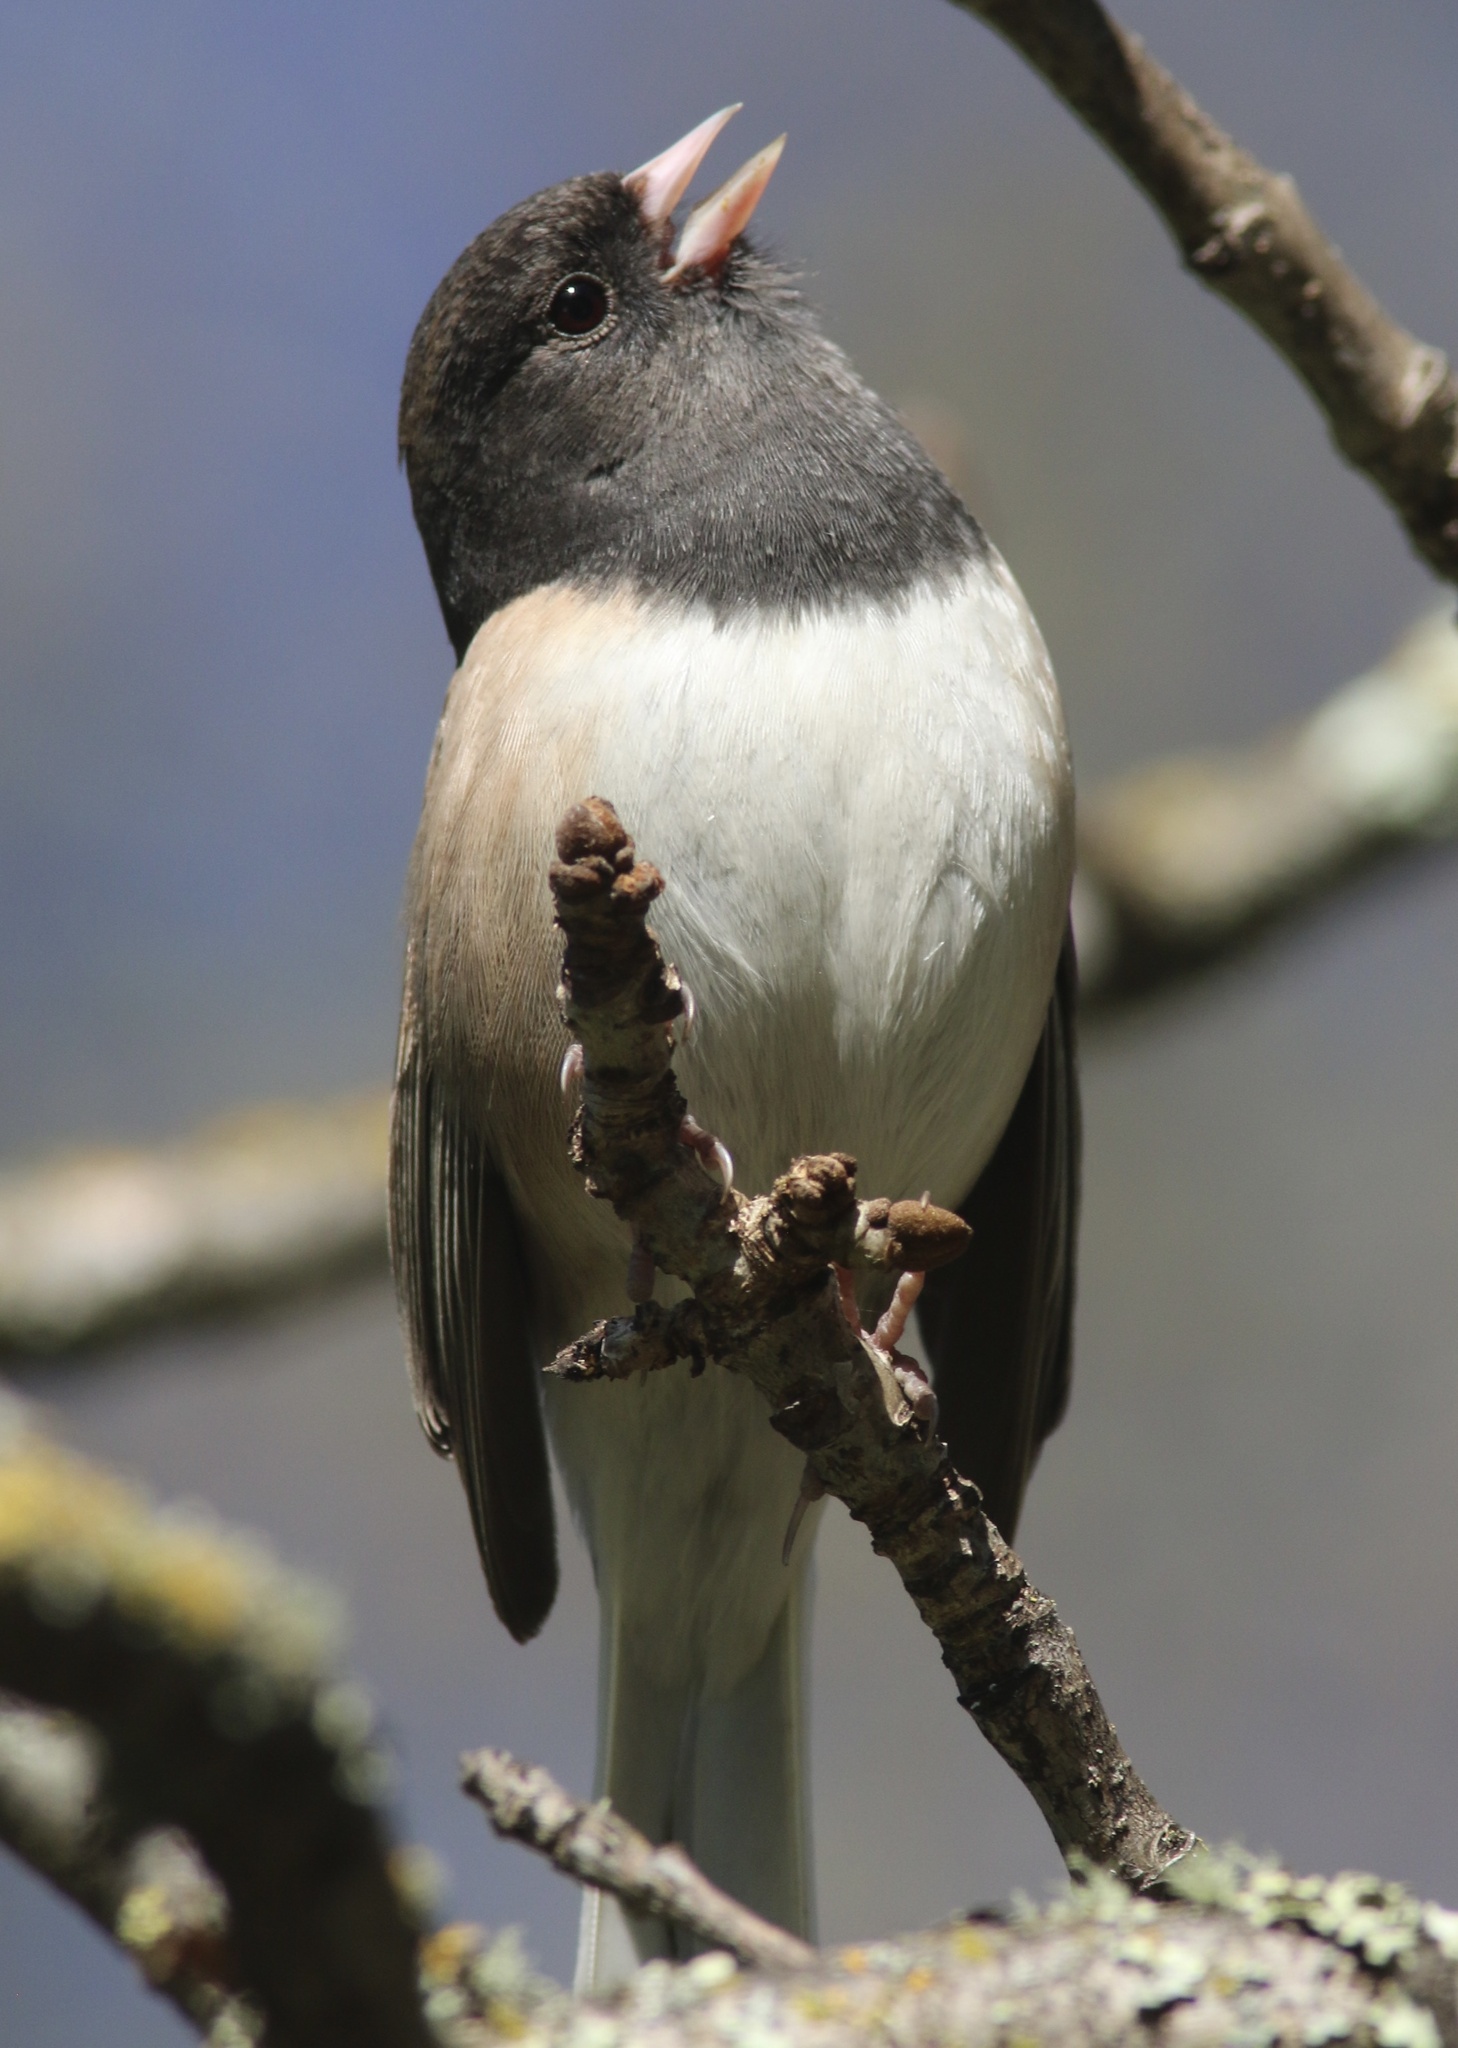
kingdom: Animalia
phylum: Chordata
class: Aves
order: Passeriformes
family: Passerellidae
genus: Junco
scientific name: Junco hyemalis
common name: Dark-eyed junco
